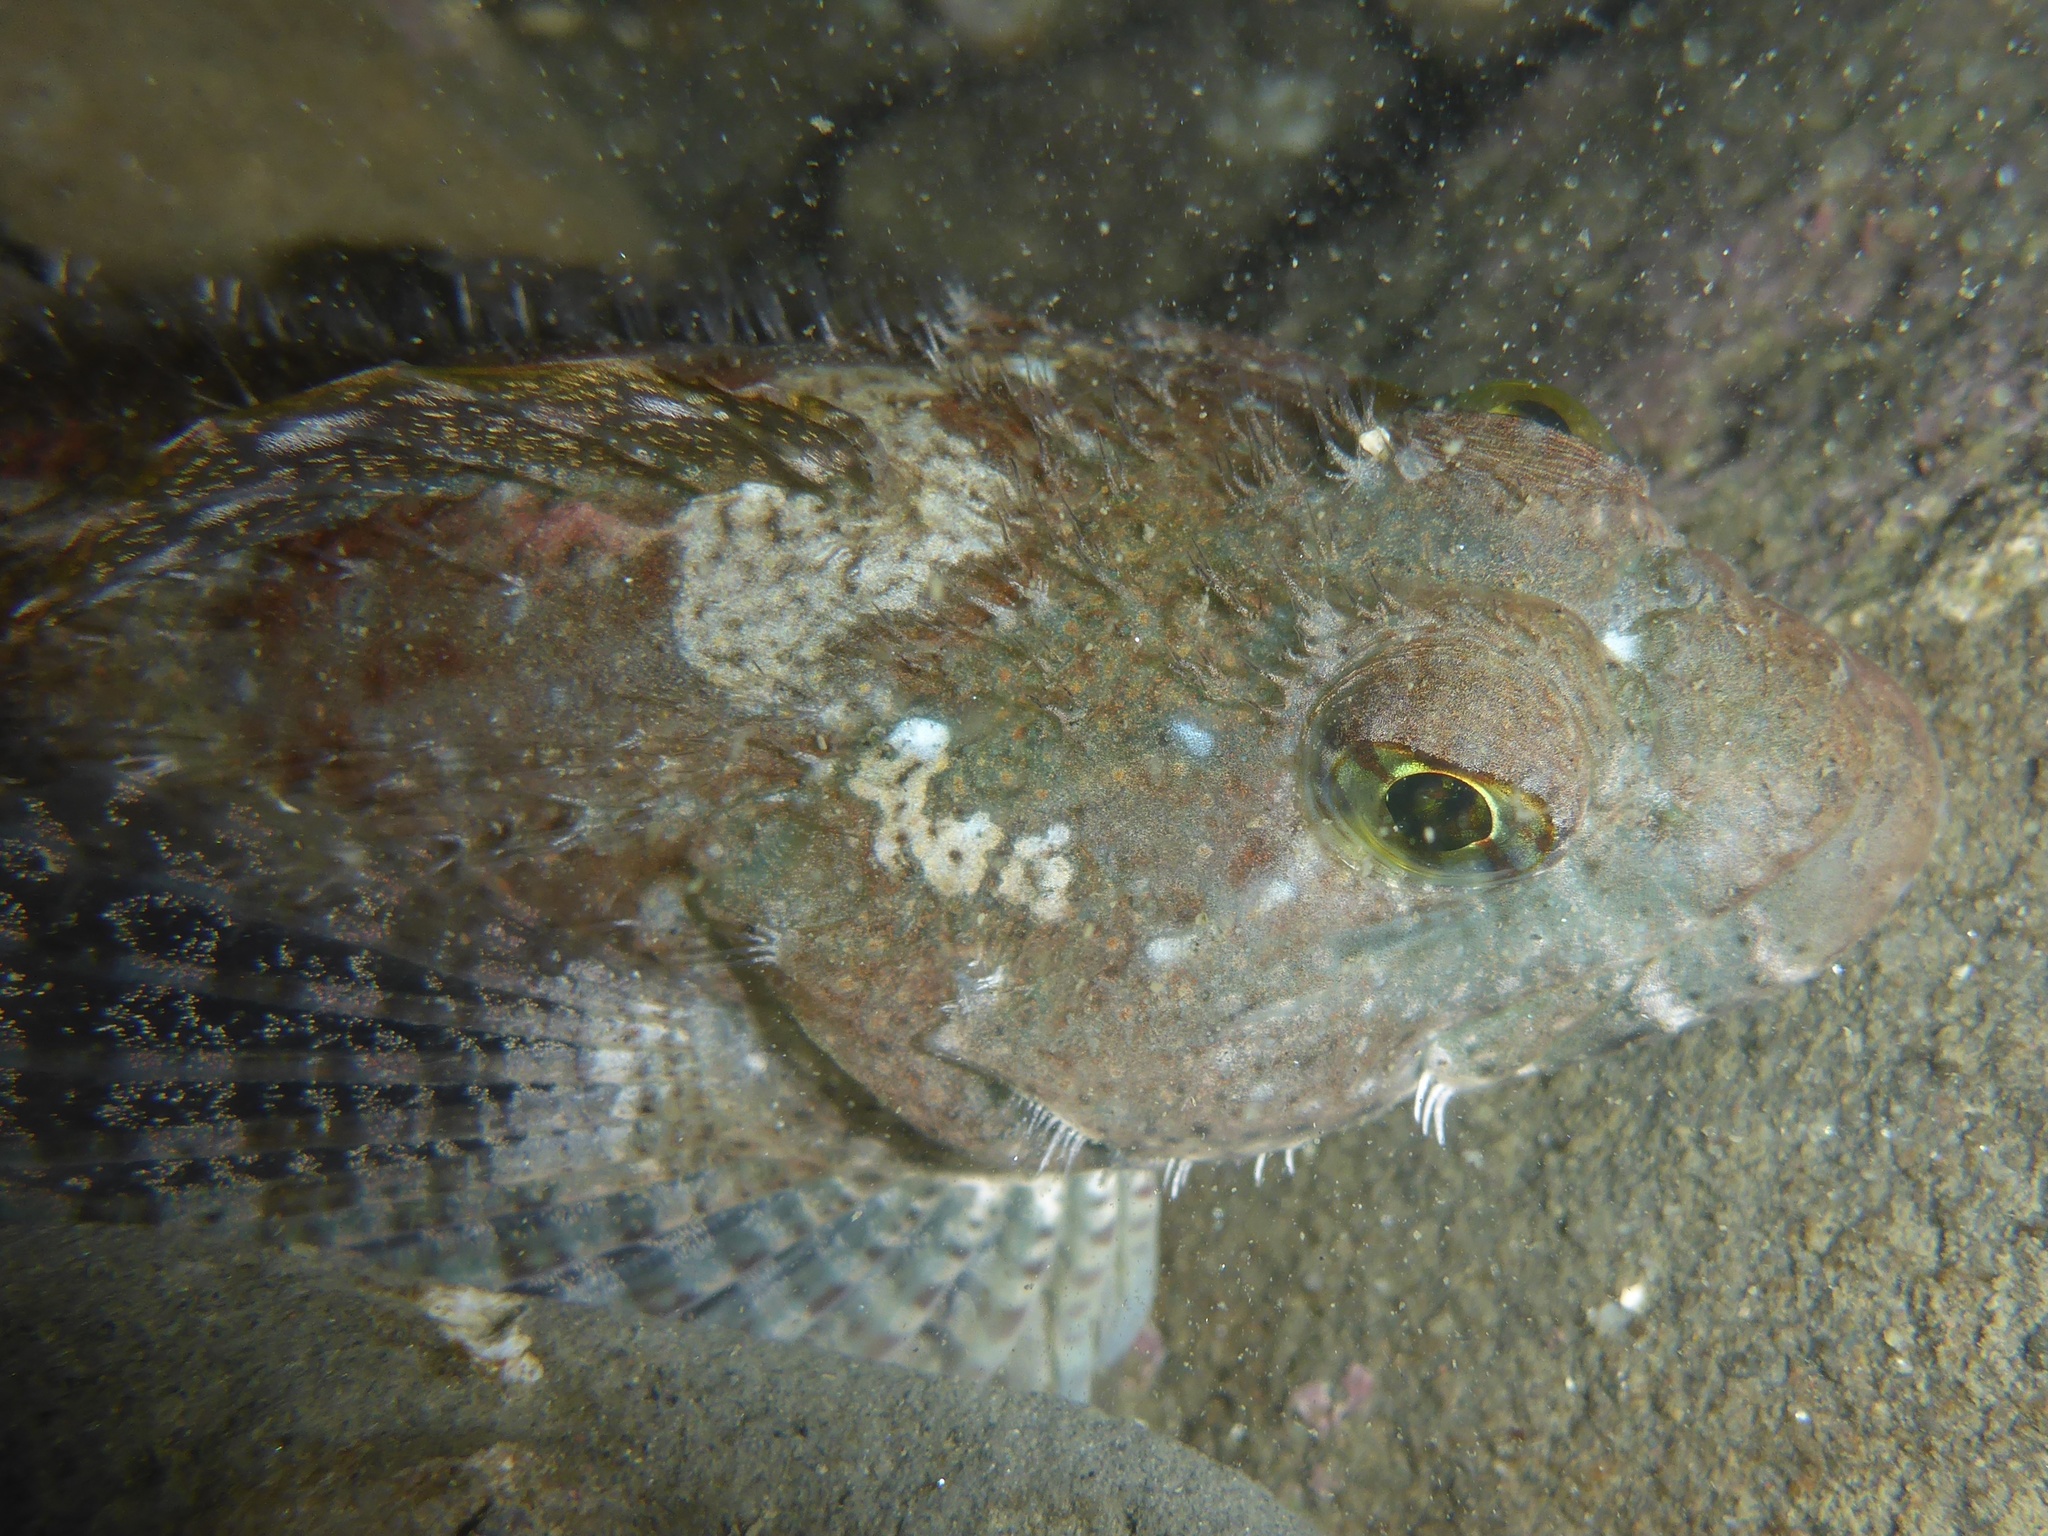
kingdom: Animalia
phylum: Chordata
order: Scorpaeniformes
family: Cottidae
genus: Clinocottus
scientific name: Clinocottus analis
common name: Woolly sculpin
